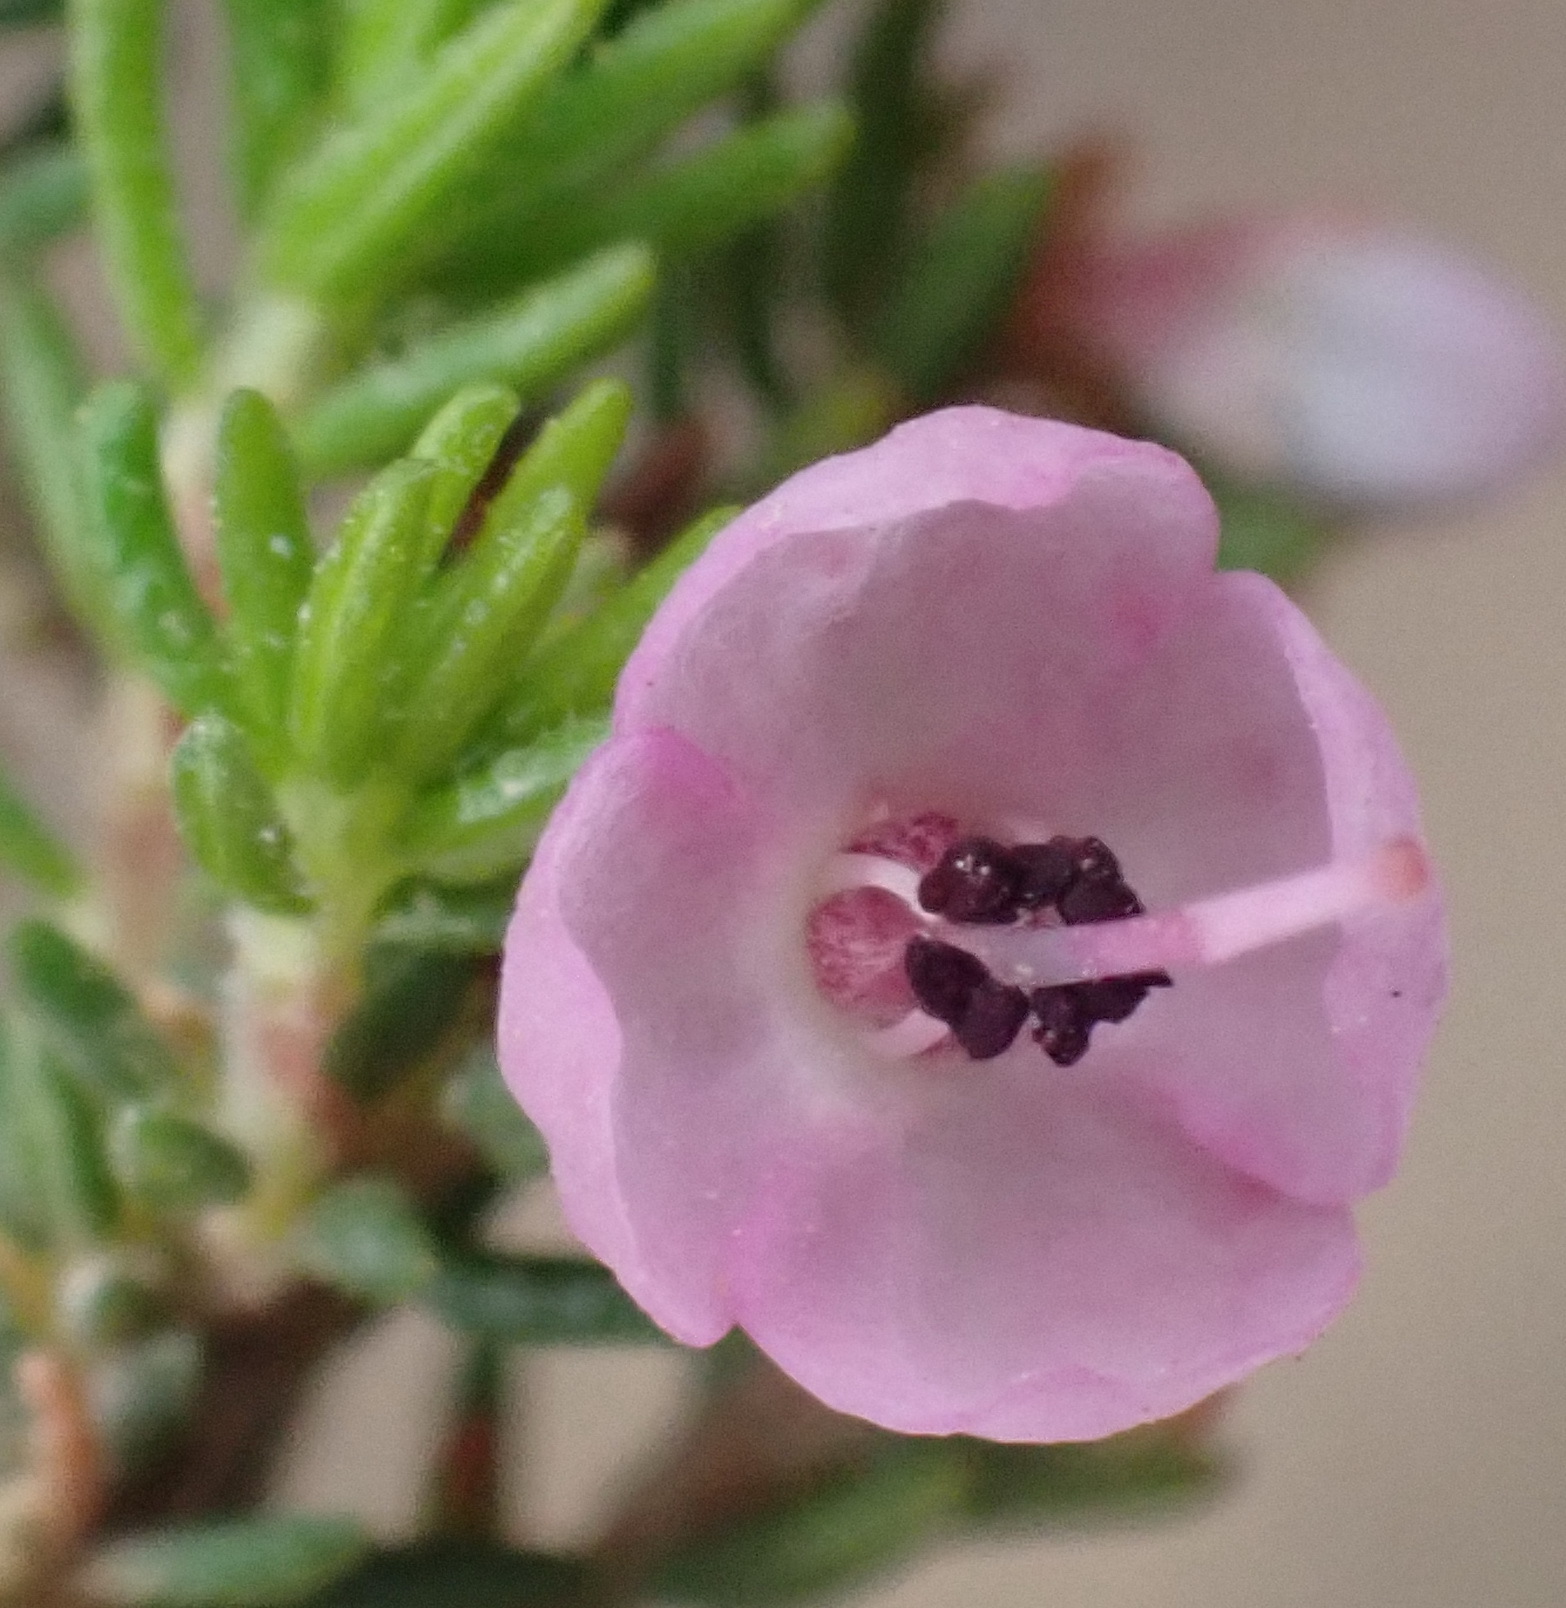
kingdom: Plantae
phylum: Tracheophyta
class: Magnoliopsida
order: Ericales
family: Ericaceae
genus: Erica
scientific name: Erica melanthera
